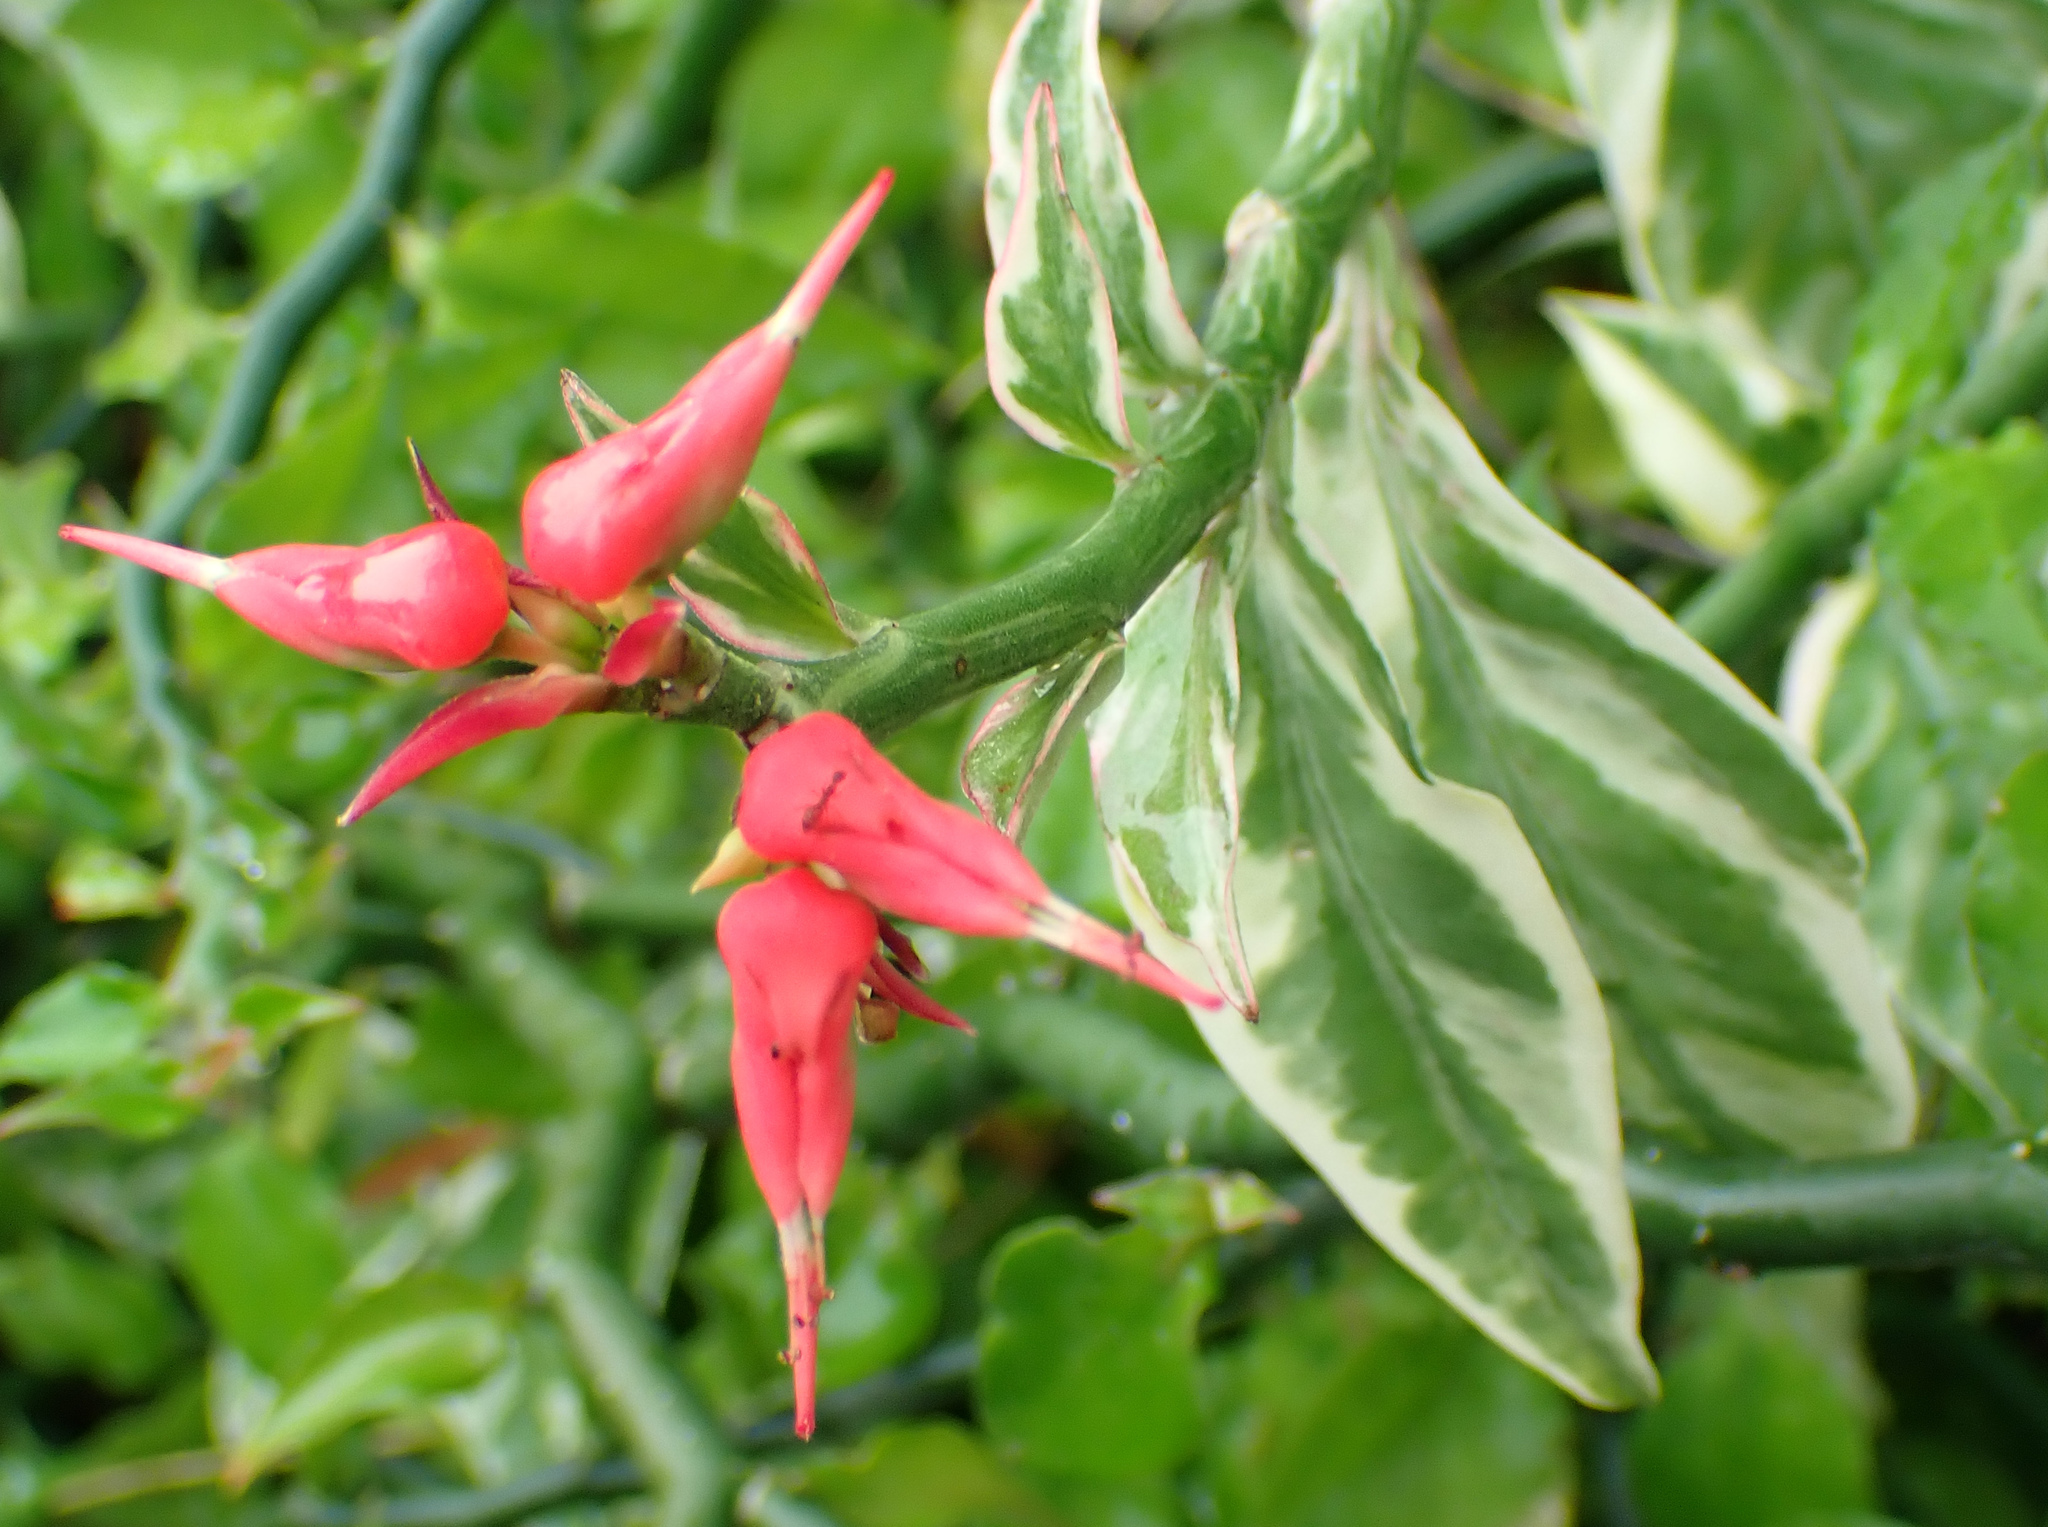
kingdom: Plantae
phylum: Tracheophyta
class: Magnoliopsida
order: Malpighiales
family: Euphorbiaceae
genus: Euphorbia
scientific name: Euphorbia tithymaloides
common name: Slipperplant
